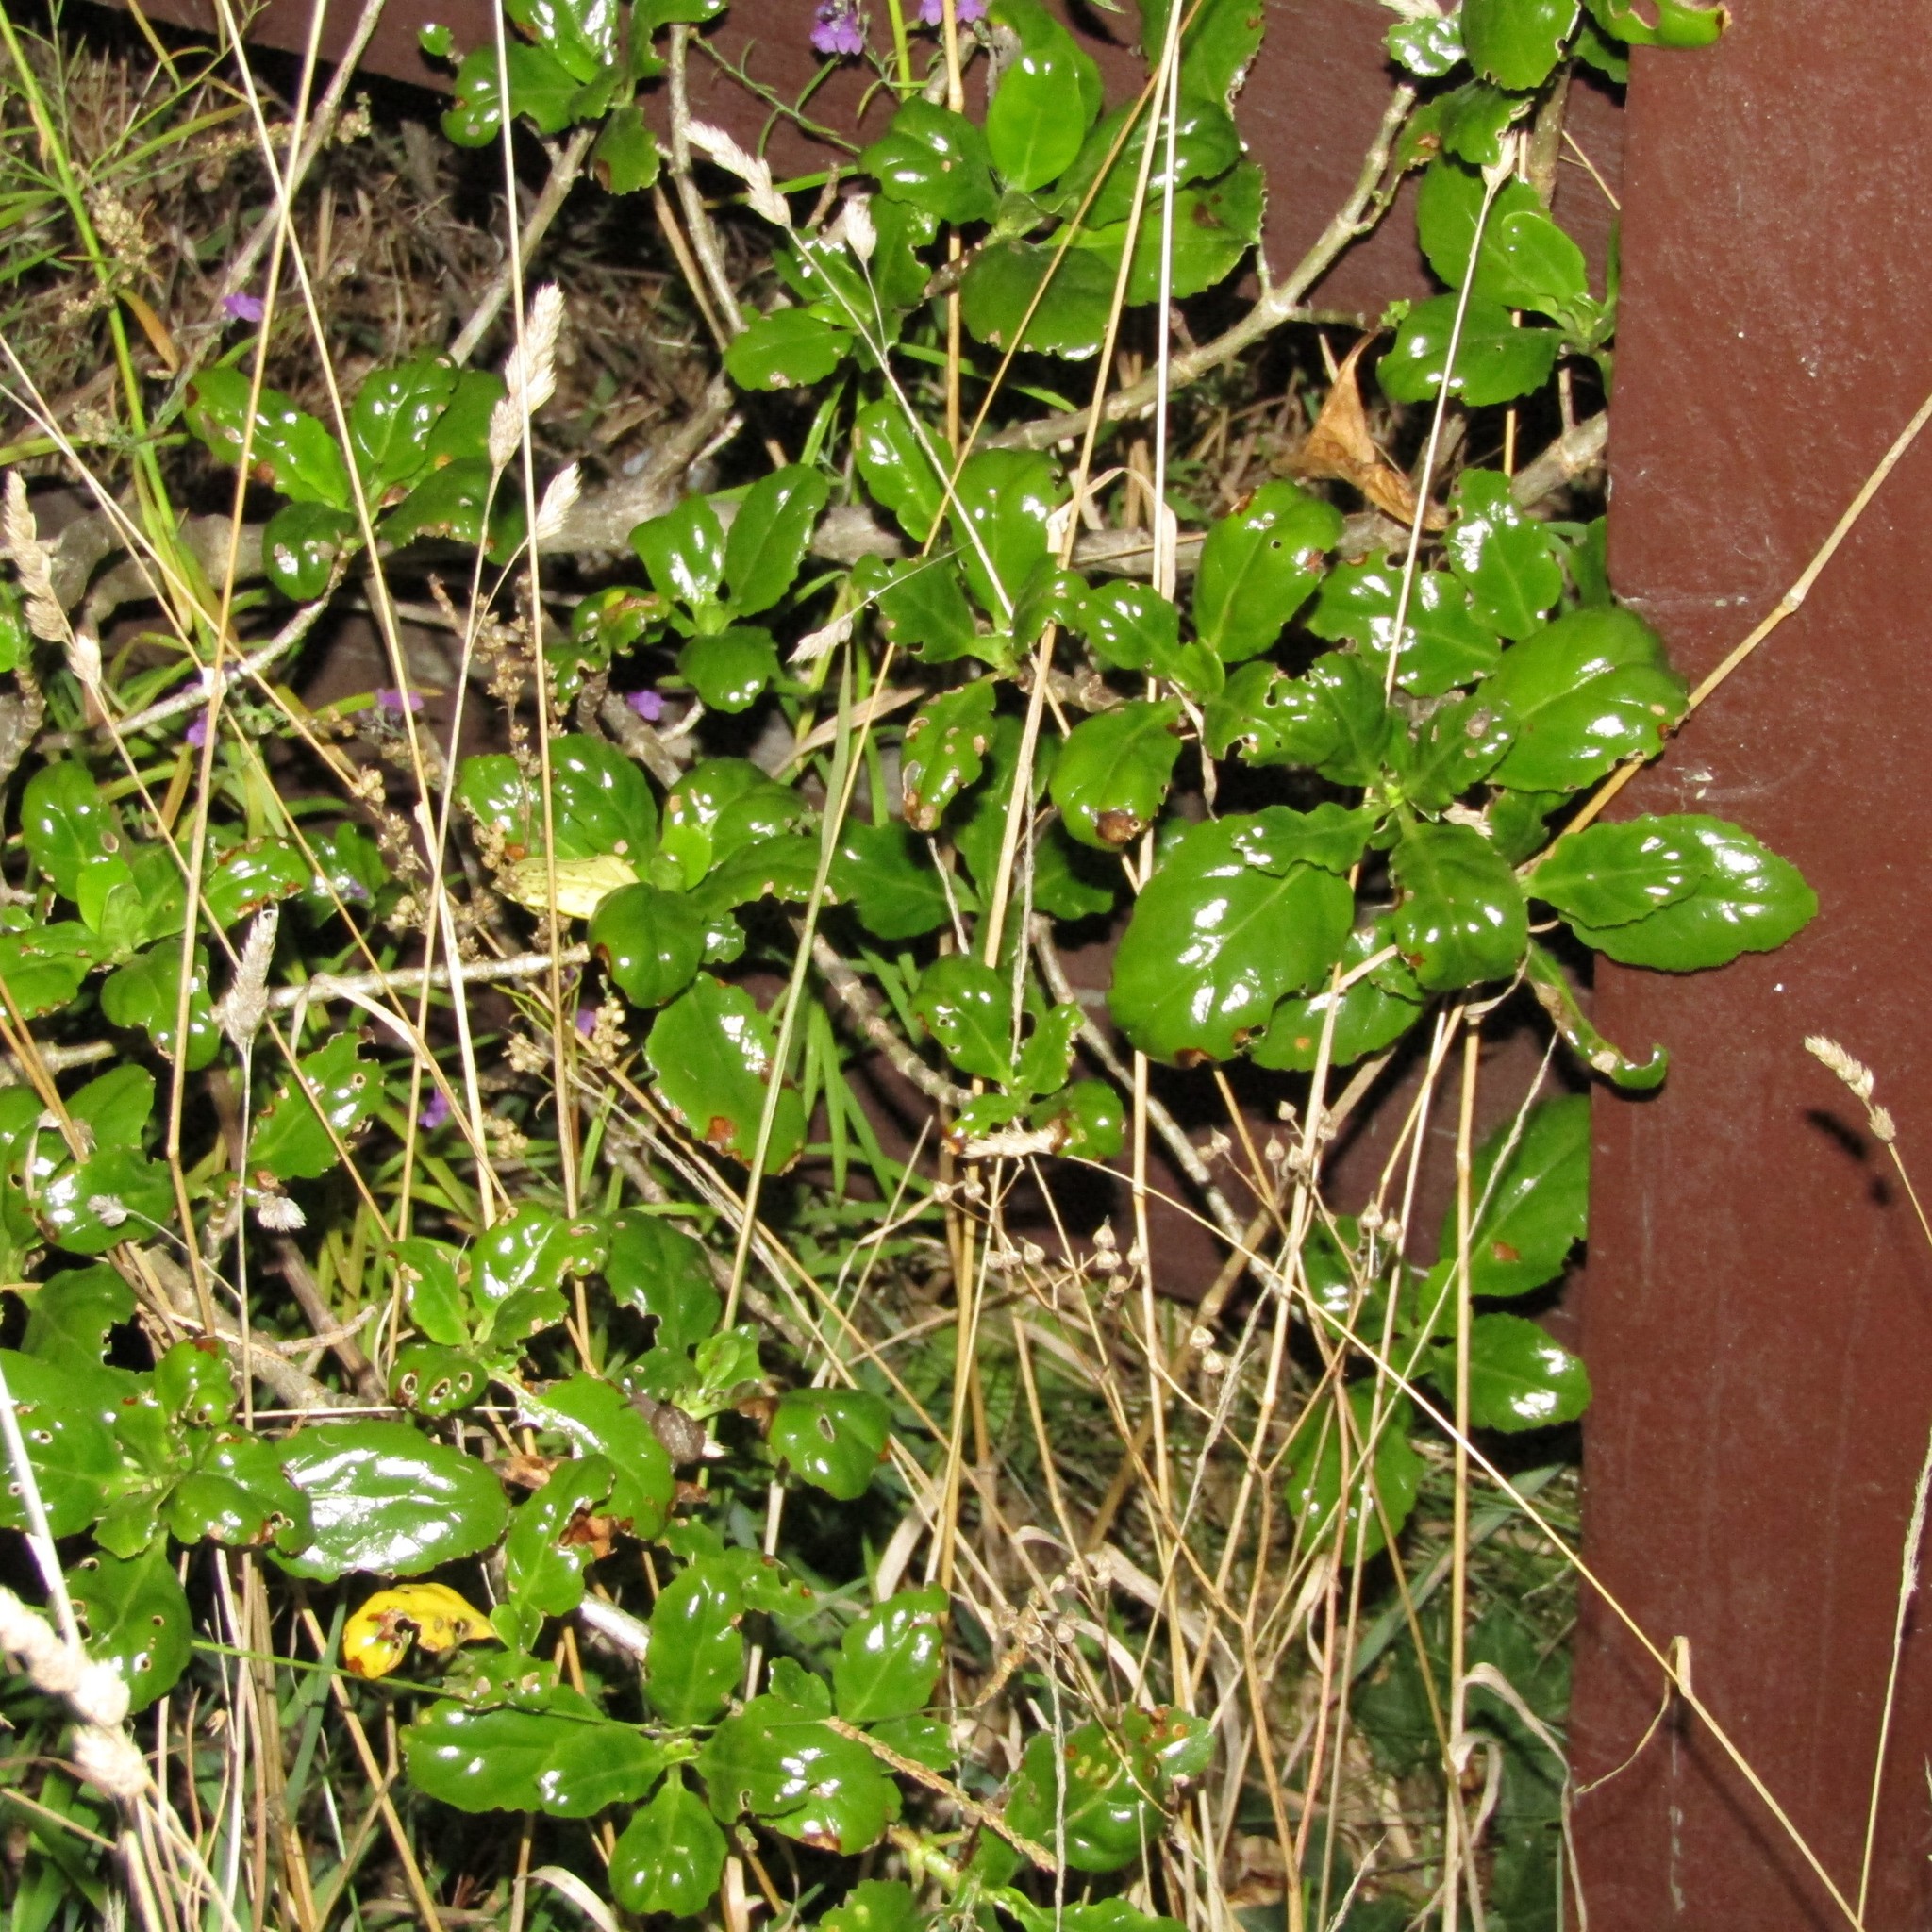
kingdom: Plantae
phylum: Tracheophyta
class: Magnoliopsida
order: Gentianales
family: Rubiaceae
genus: Coprosma
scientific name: Coprosma repens
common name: Tree bedstraw
